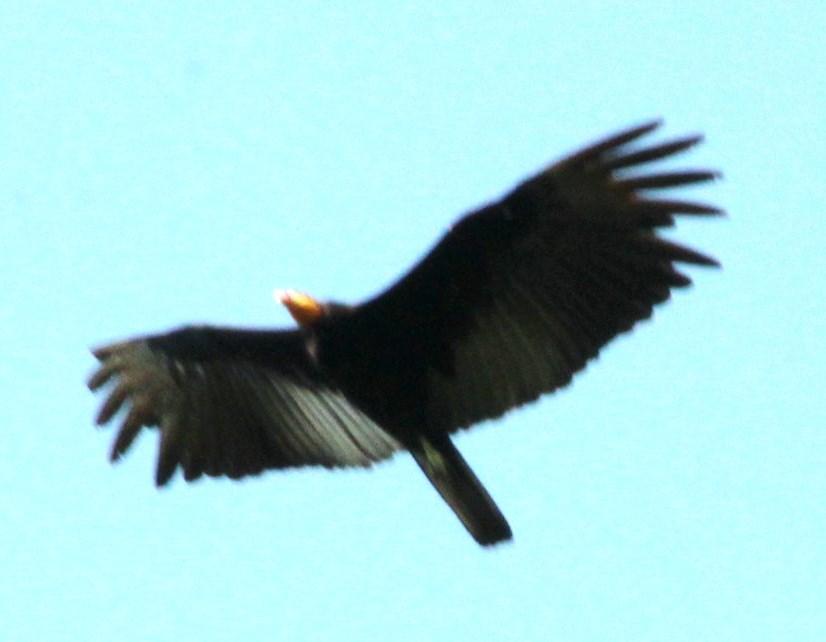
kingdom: Animalia
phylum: Chordata
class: Aves
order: Accipitriformes
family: Cathartidae
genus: Cathartes
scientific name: Cathartes melambrotus
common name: Greater yellow-headed vulture
